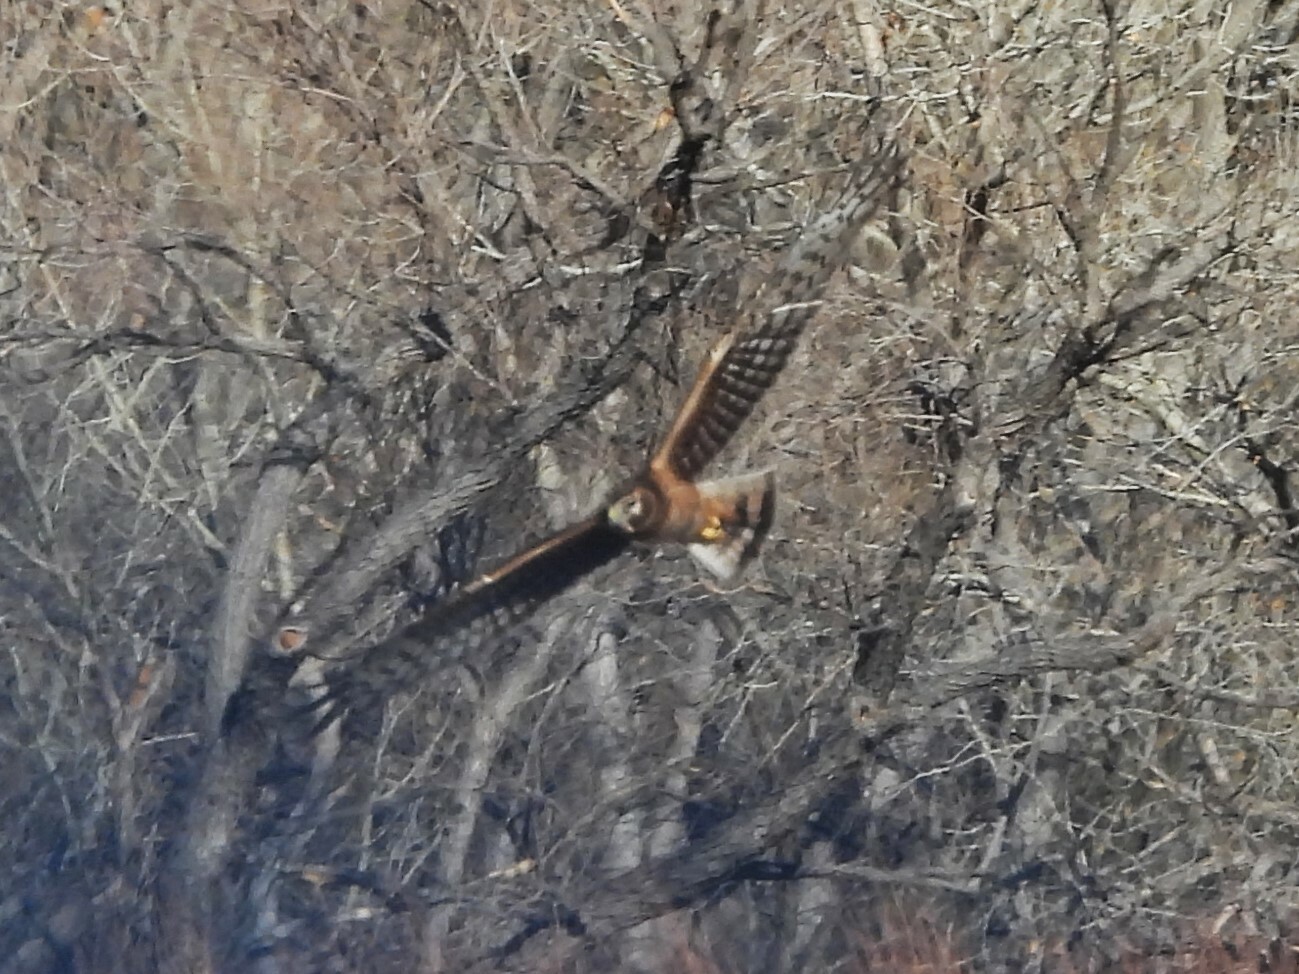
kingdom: Animalia
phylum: Chordata
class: Aves
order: Accipitriformes
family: Accipitridae
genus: Circus
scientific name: Circus cyaneus
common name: Hen harrier
